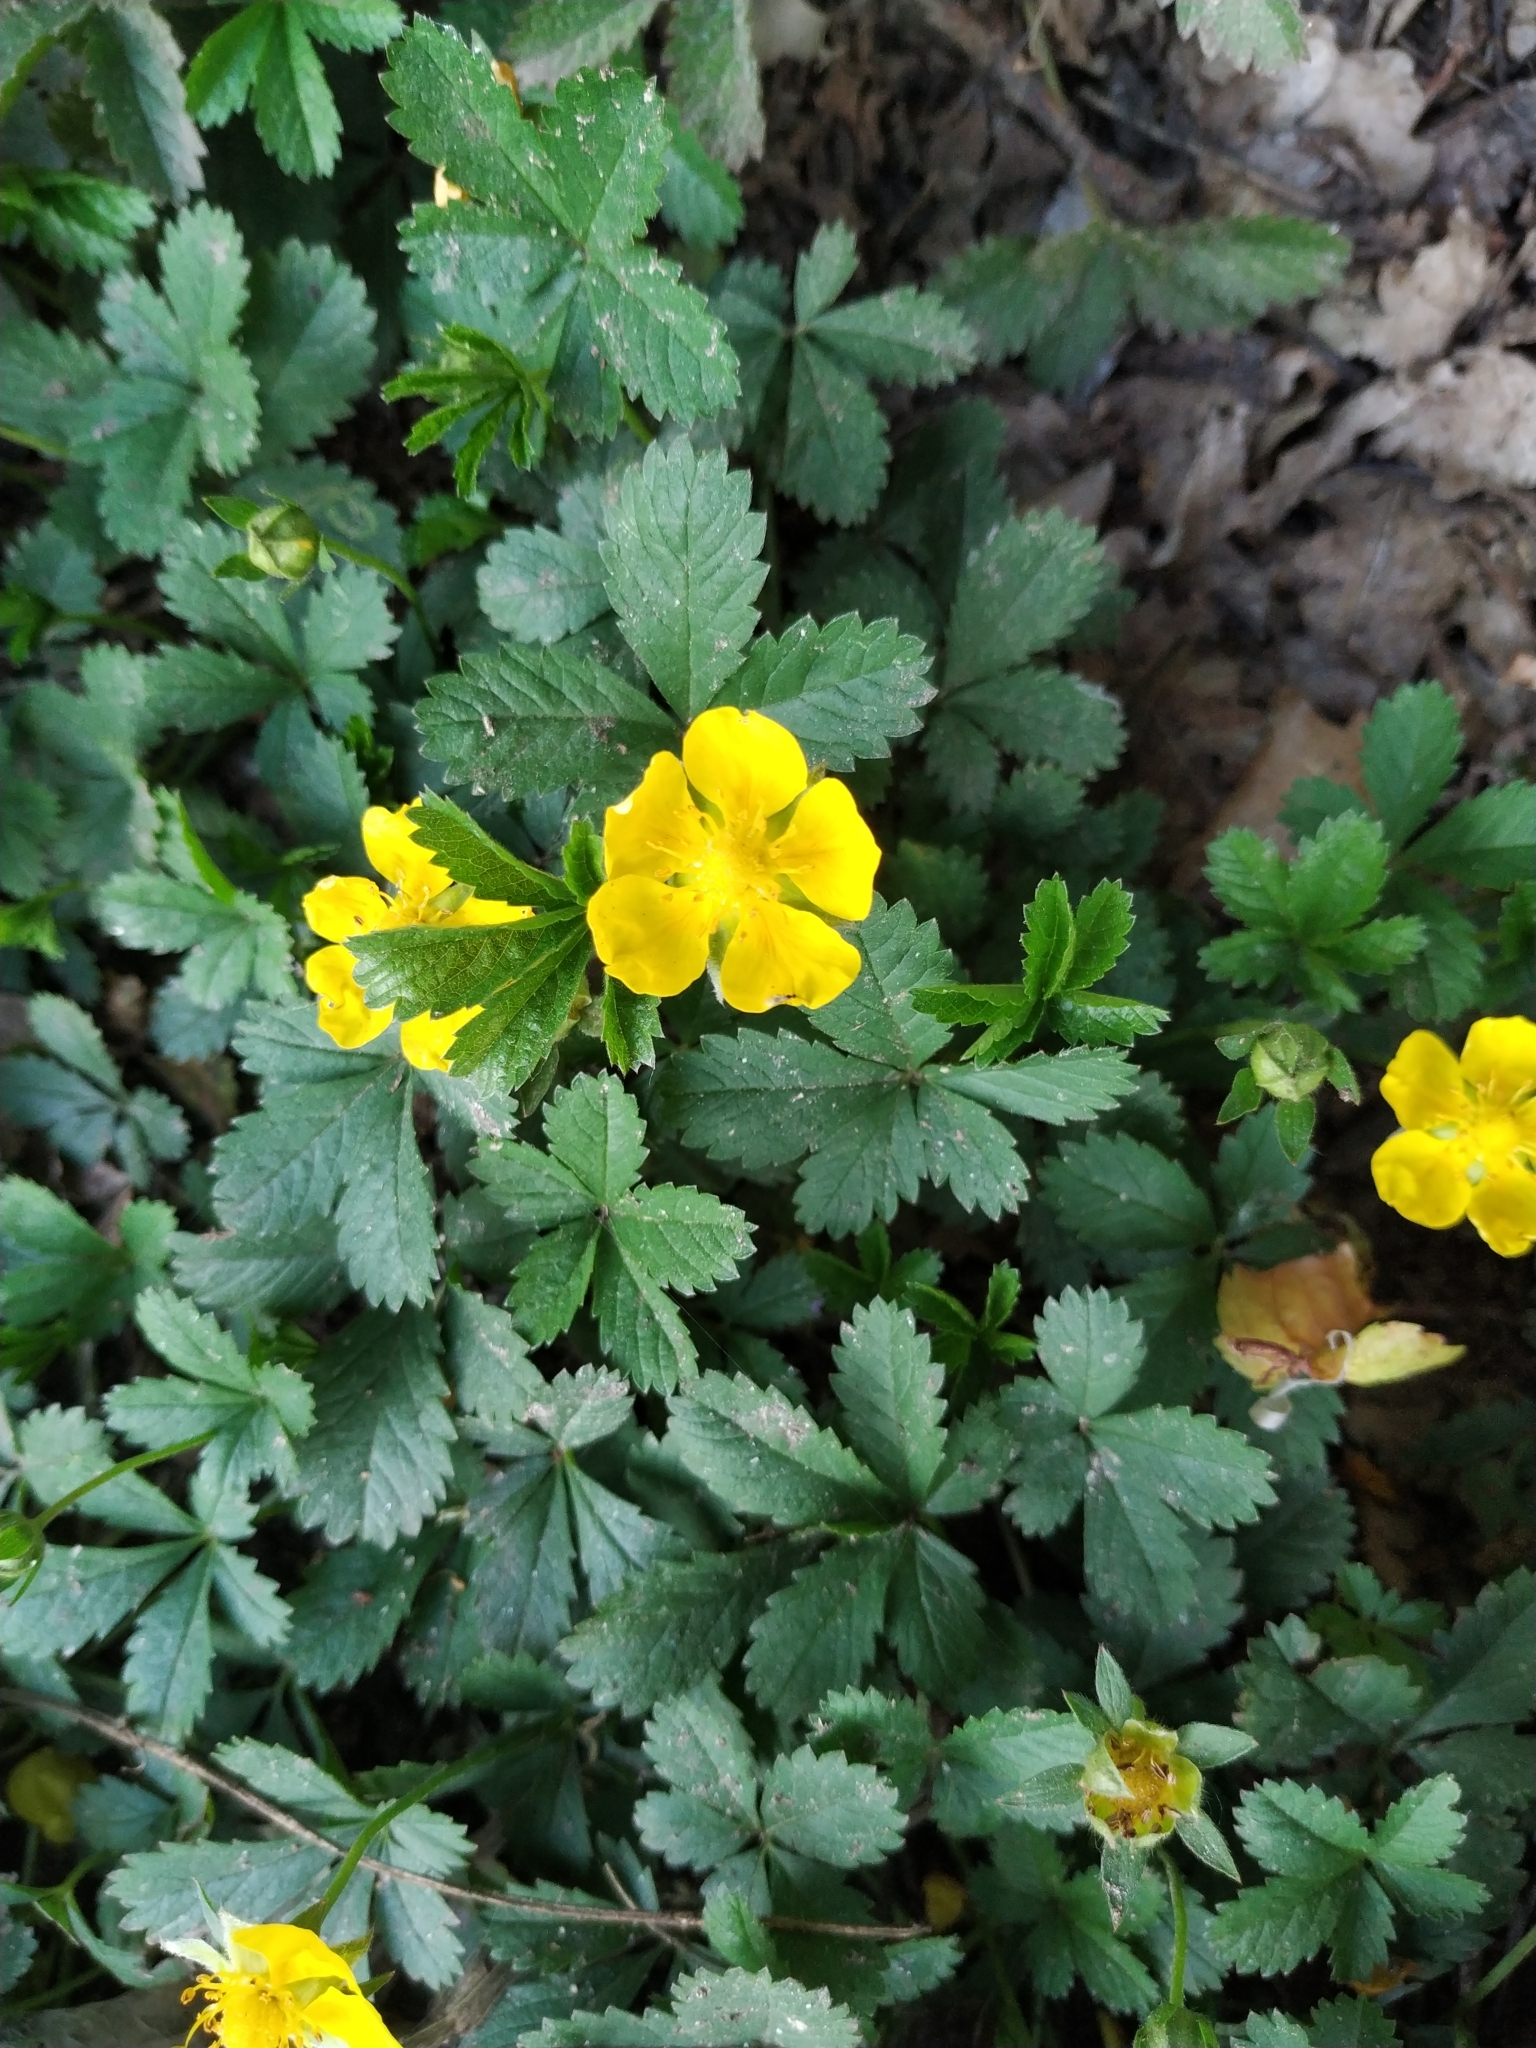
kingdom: Plantae
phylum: Tracheophyta
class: Magnoliopsida
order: Rosales
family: Rosaceae
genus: Potentilla
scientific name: Potentilla reptans
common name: Creeping cinquefoil
